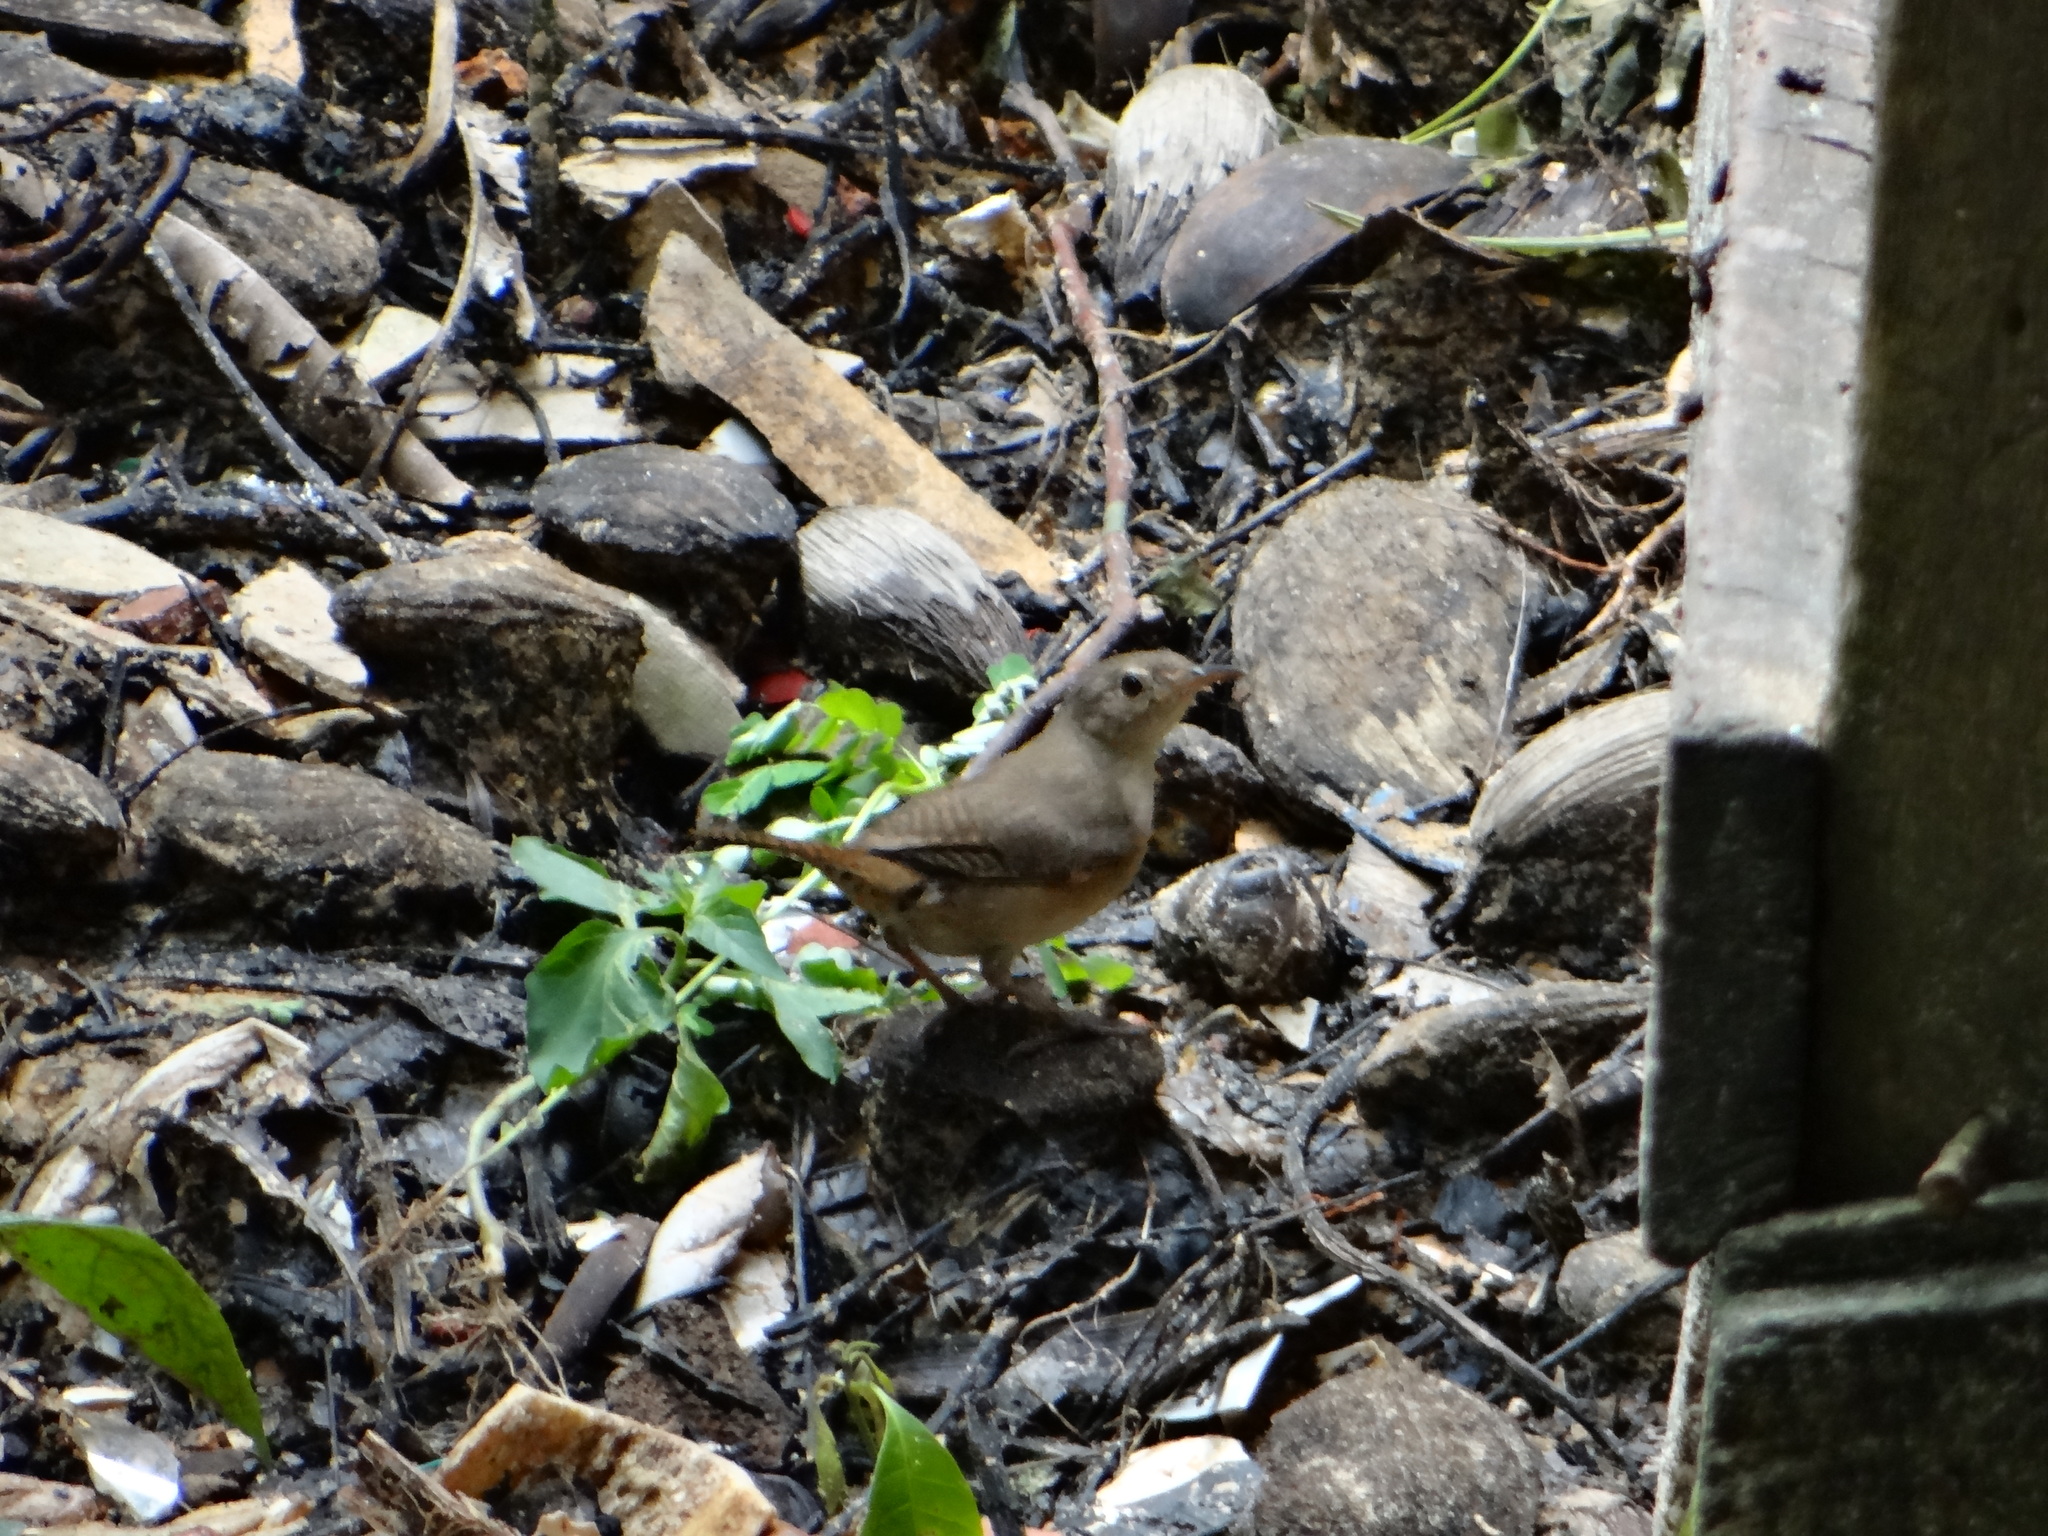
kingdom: Animalia
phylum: Chordata
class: Aves
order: Passeriformes
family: Troglodytidae
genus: Troglodytes
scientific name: Troglodytes aedon
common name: House wren
